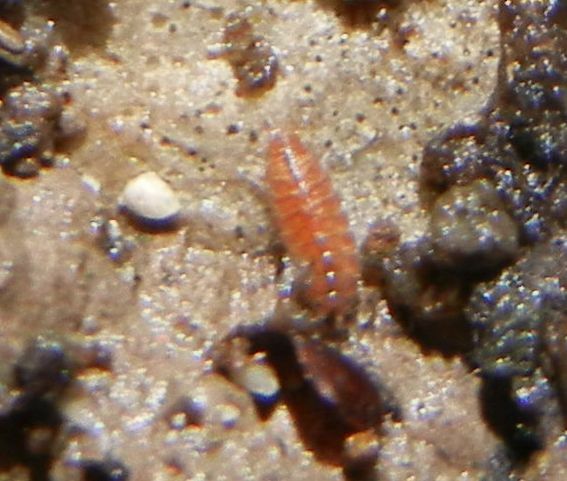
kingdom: Animalia
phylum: Arthropoda
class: Malacostraca
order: Isopoda
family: Trichoniscidae
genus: Trichoniscus
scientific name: Trichoniscus
